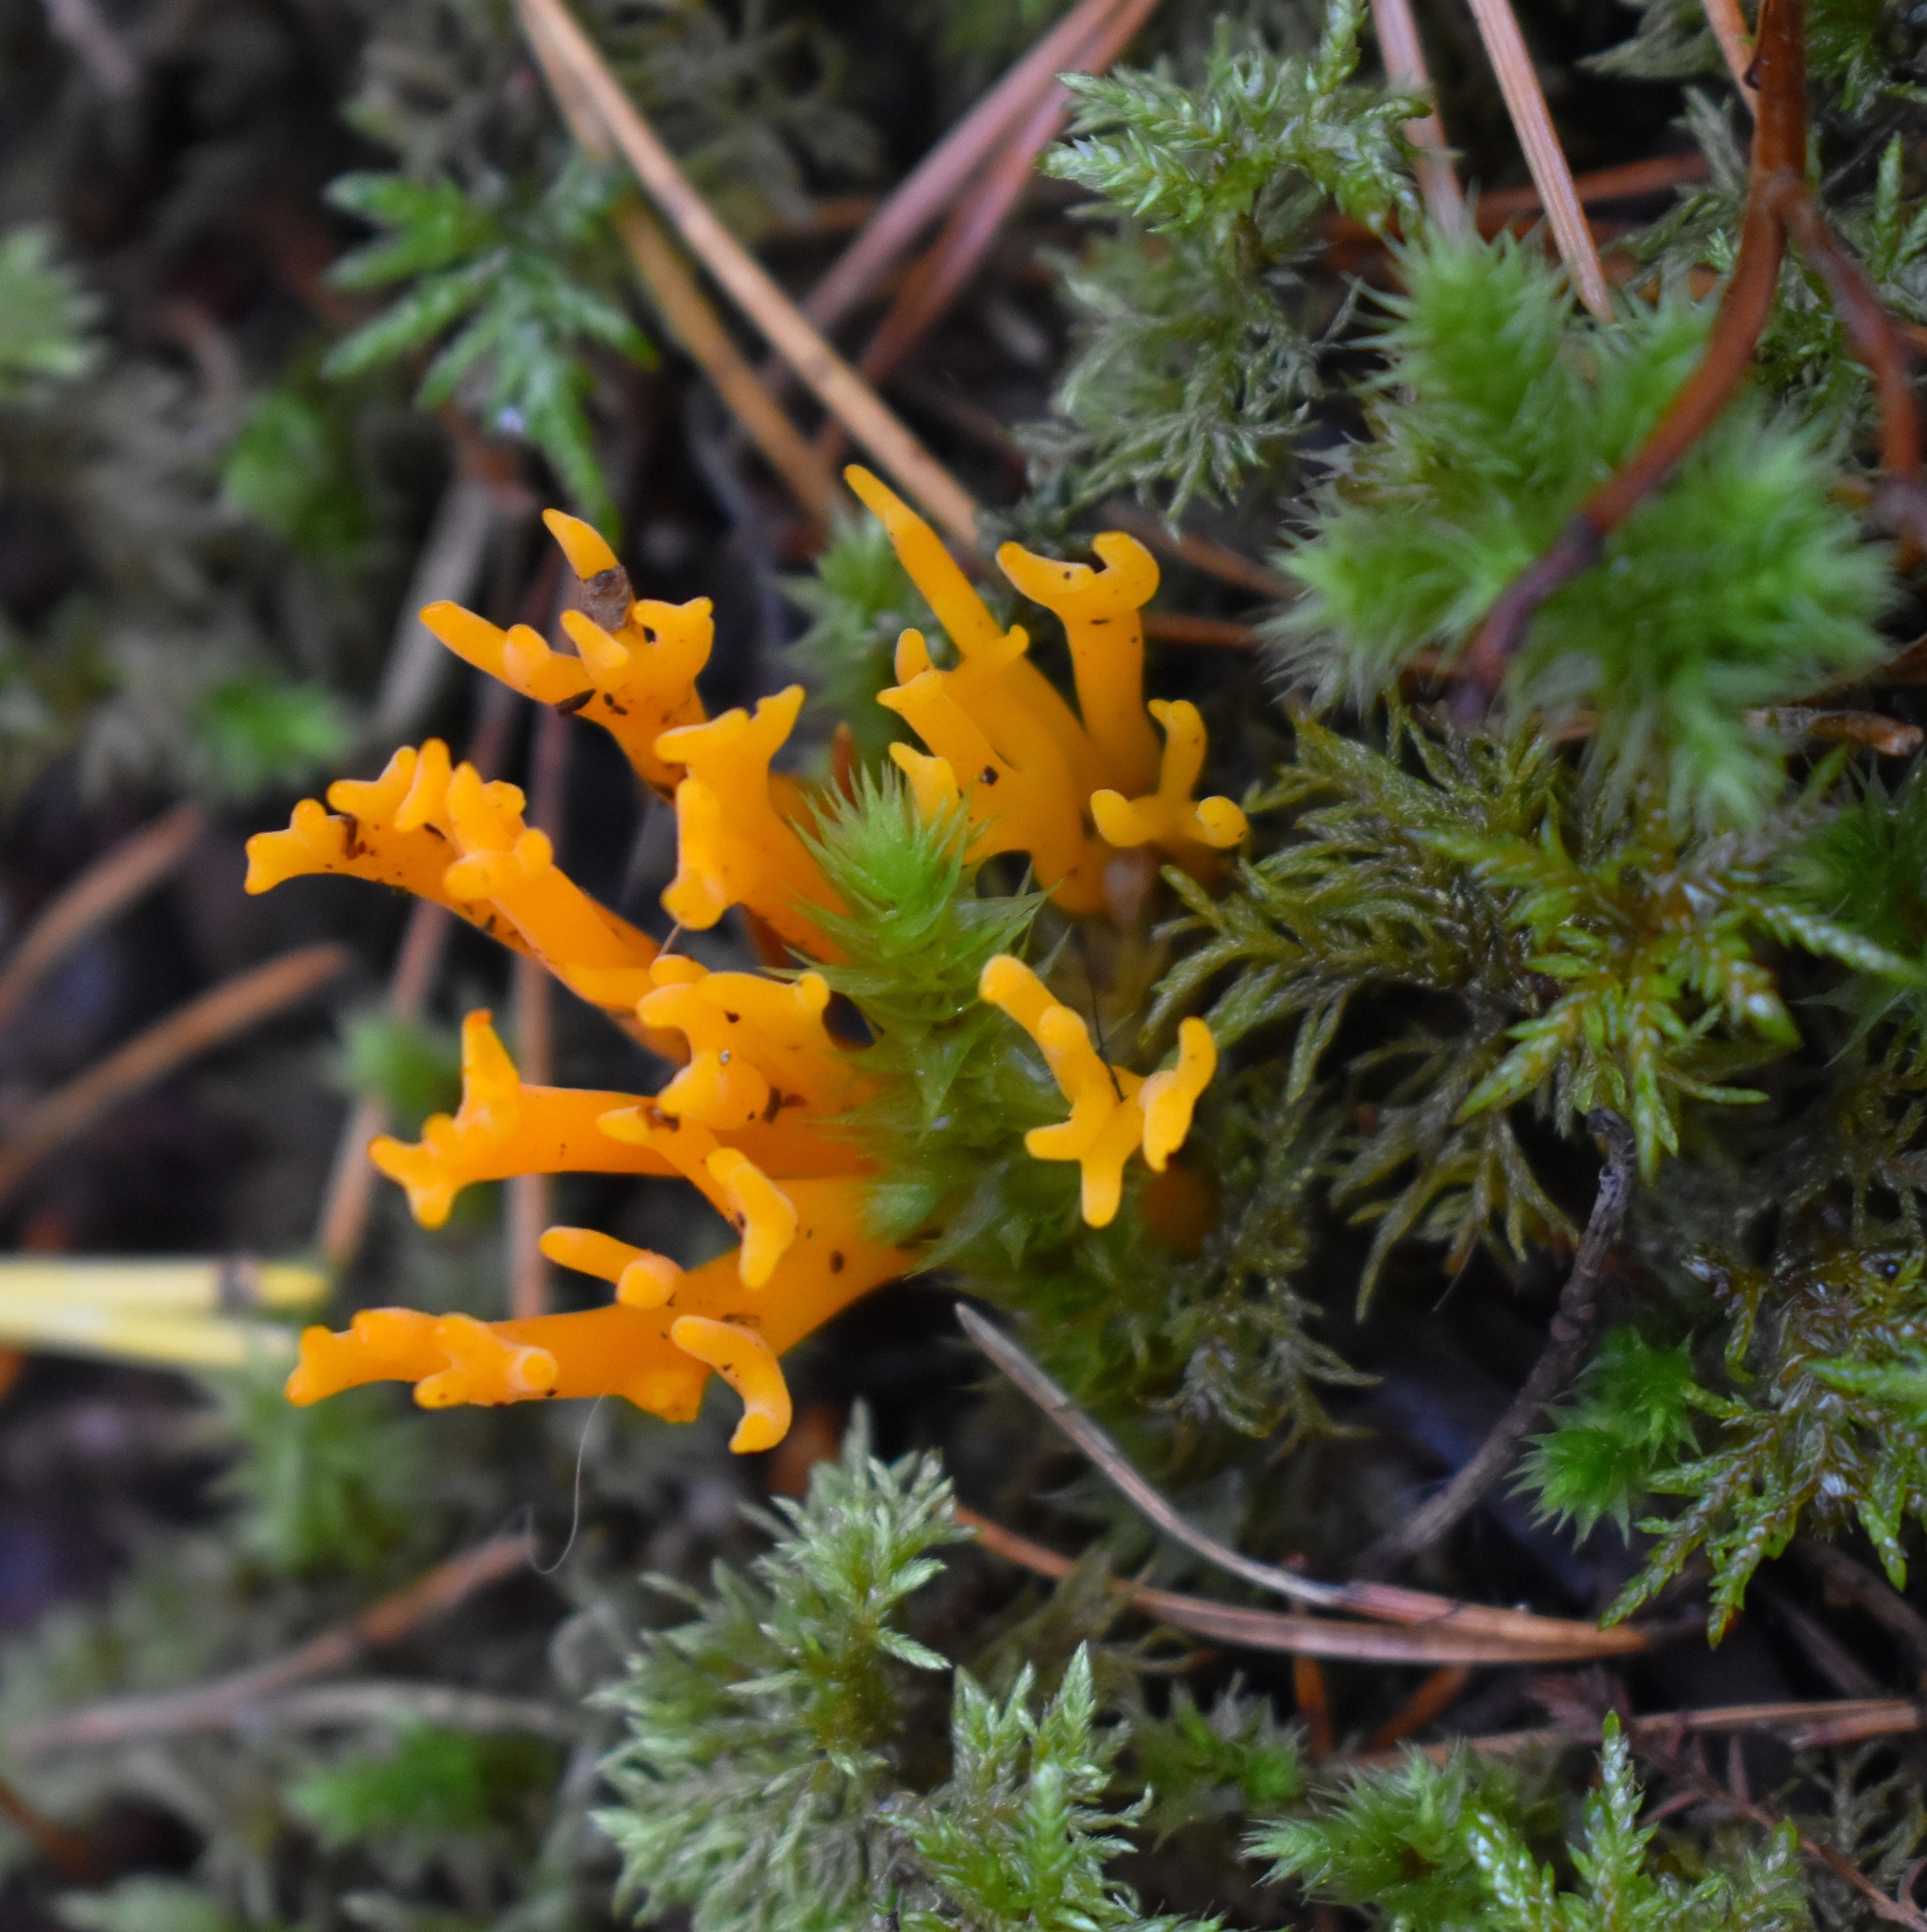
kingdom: Fungi
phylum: Basidiomycota
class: Dacrymycetes
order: Dacrymycetales
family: Dacrymycetaceae
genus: Calocera
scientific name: Calocera viscosa
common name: Yellow stagshorn
